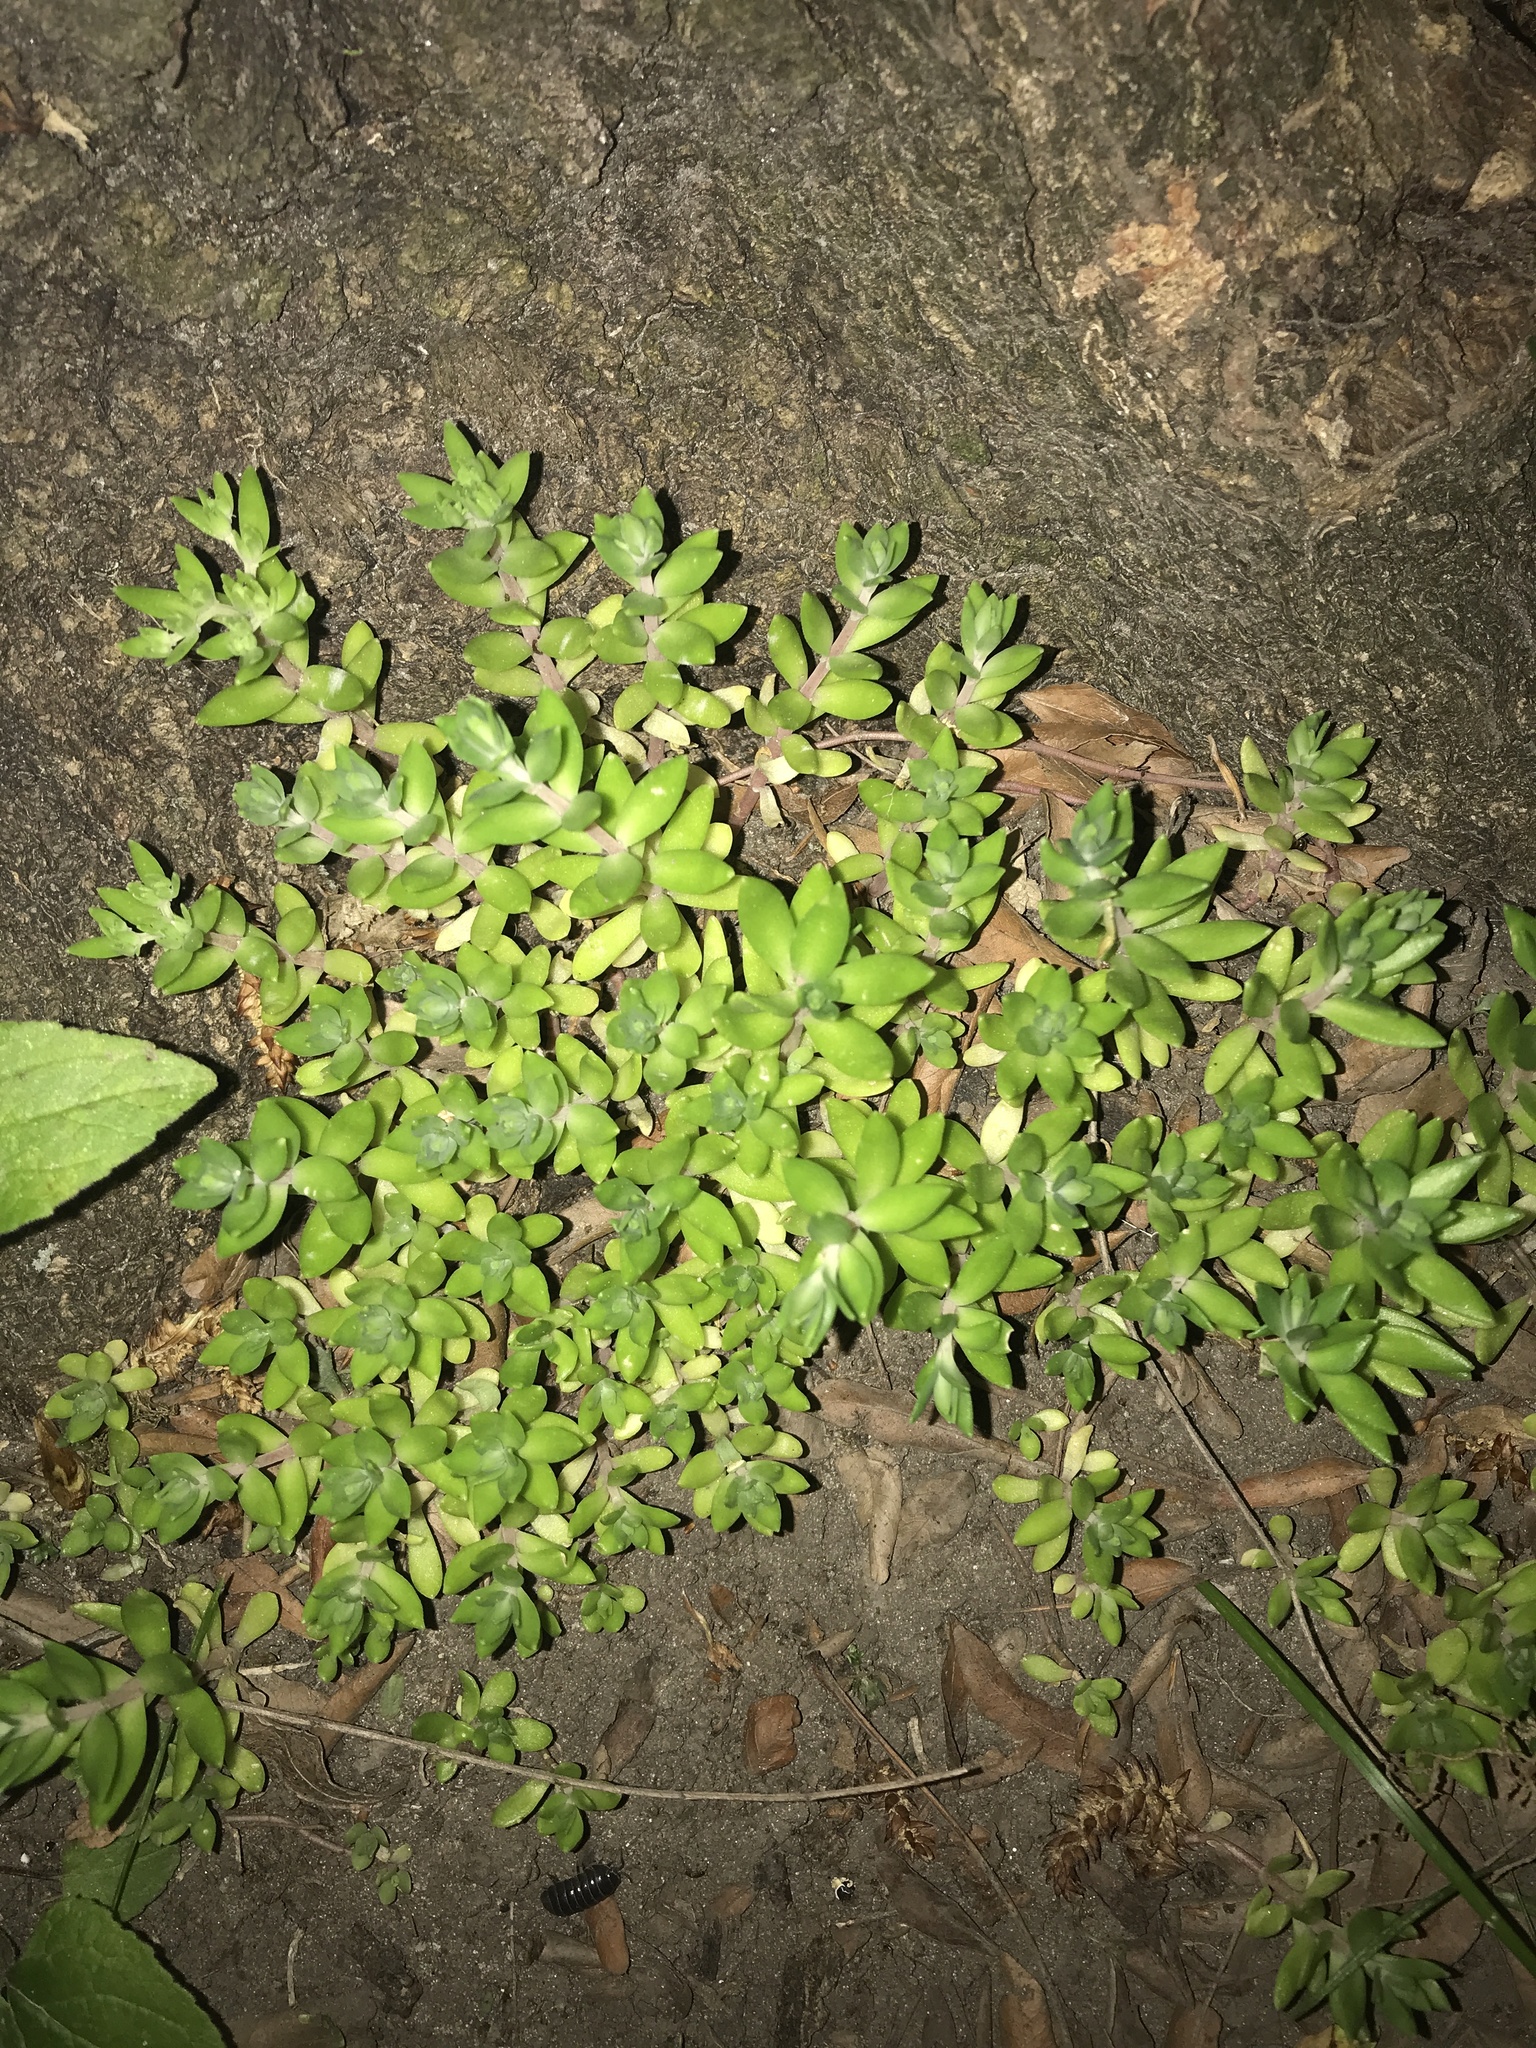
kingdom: Plantae
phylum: Tracheophyta
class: Magnoliopsida
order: Saxifragales
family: Crassulaceae
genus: Sedum
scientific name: Sedum sarmentosum
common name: Stringy stonecrop
